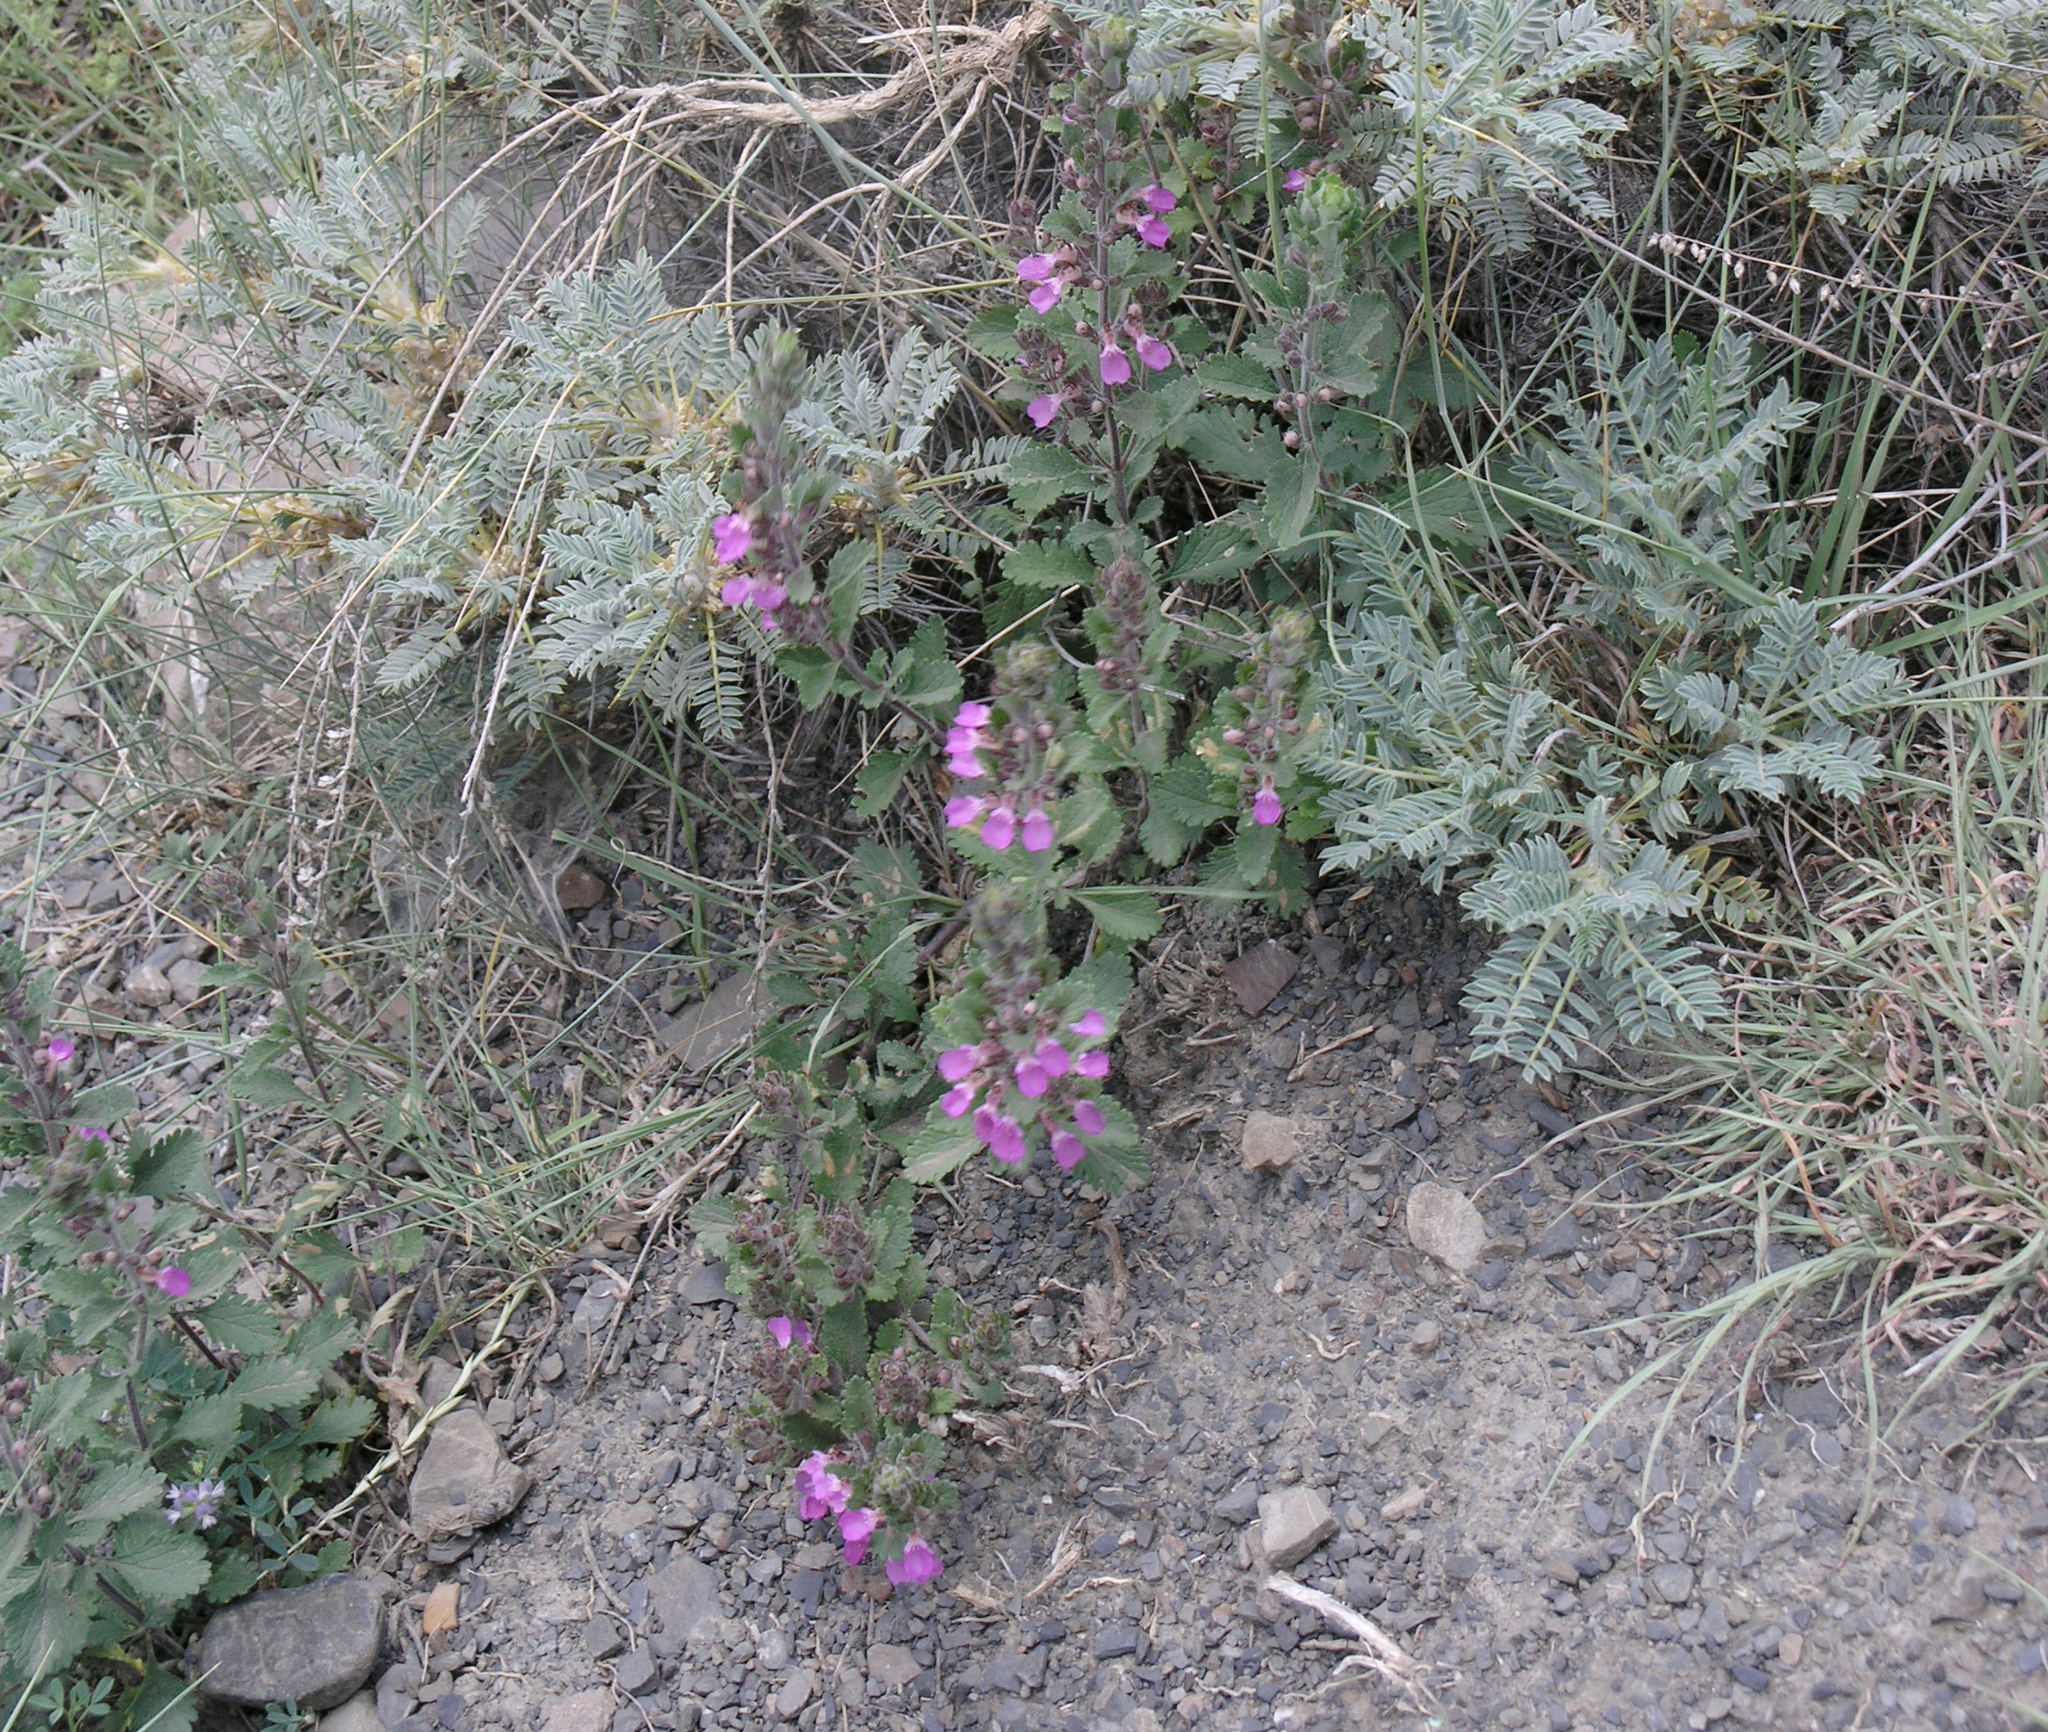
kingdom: Plantae
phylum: Tracheophyta
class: Magnoliopsida
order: Lamiales
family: Lamiaceae
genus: Teucrium
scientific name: Teucrium chamaedrys
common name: Wall germander
